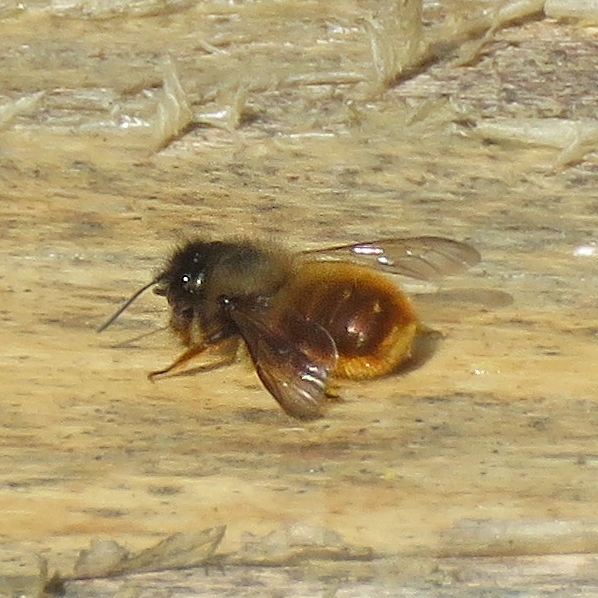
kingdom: Animalia
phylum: Arthropoda
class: Insecta
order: Hymenoptera
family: Megachilidae
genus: Osmia
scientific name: Osmia bicornis
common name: Red mason bee
